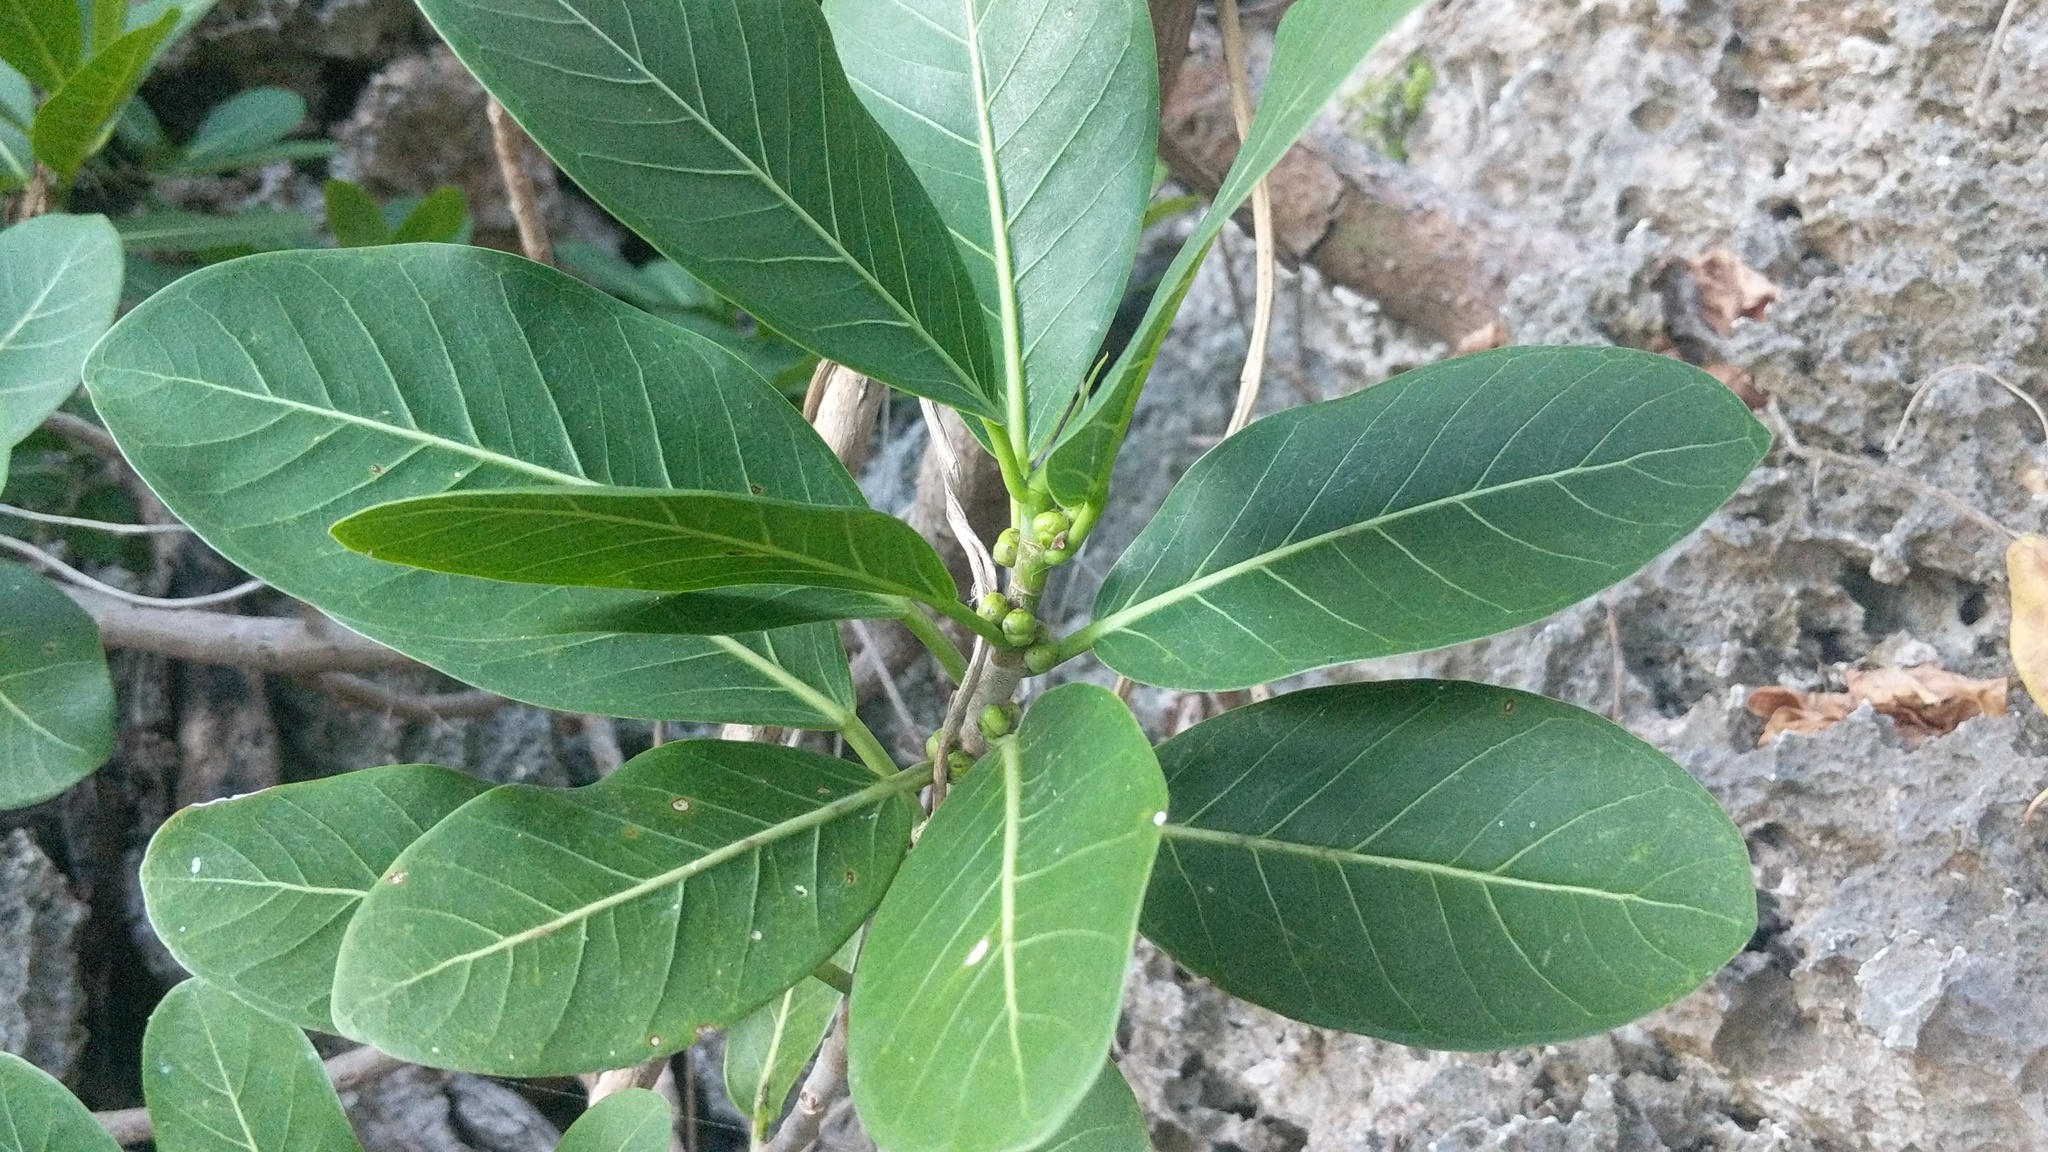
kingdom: Plantae
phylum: Tracheophyta
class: Magnoliopsida
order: Rosales
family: Moraceae
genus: Ficus
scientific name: Ficus aurea
